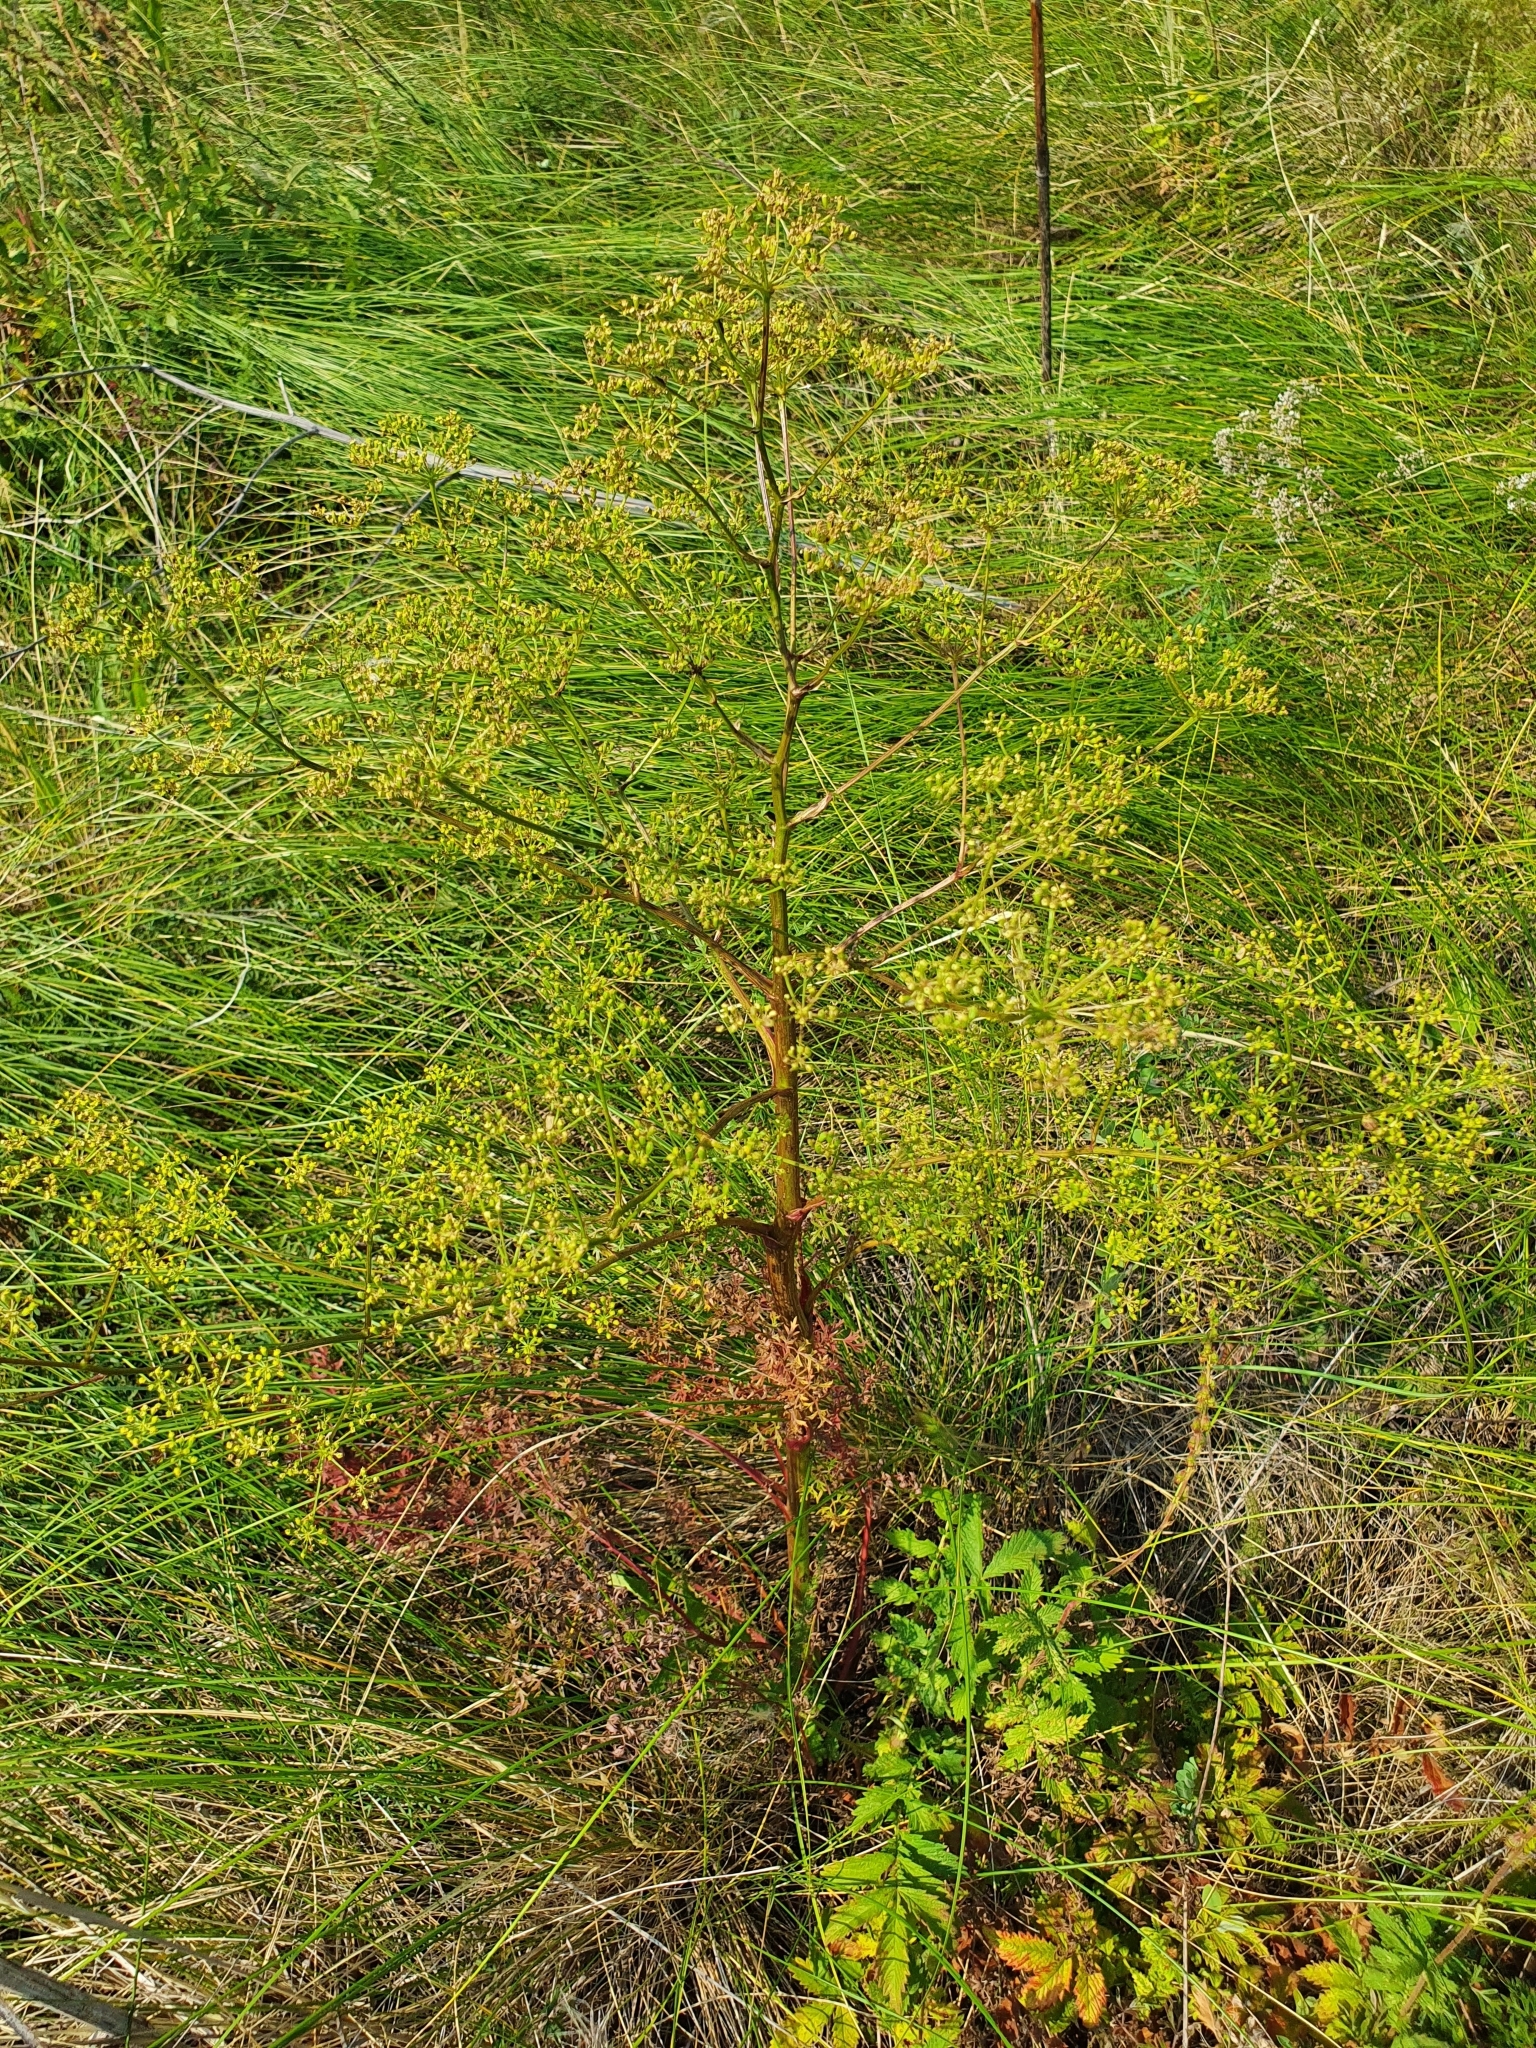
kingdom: Plantae
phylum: Tracheophyta
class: Magnoliopsida
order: Apiales
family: Apiaceae
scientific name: Apiaceae
